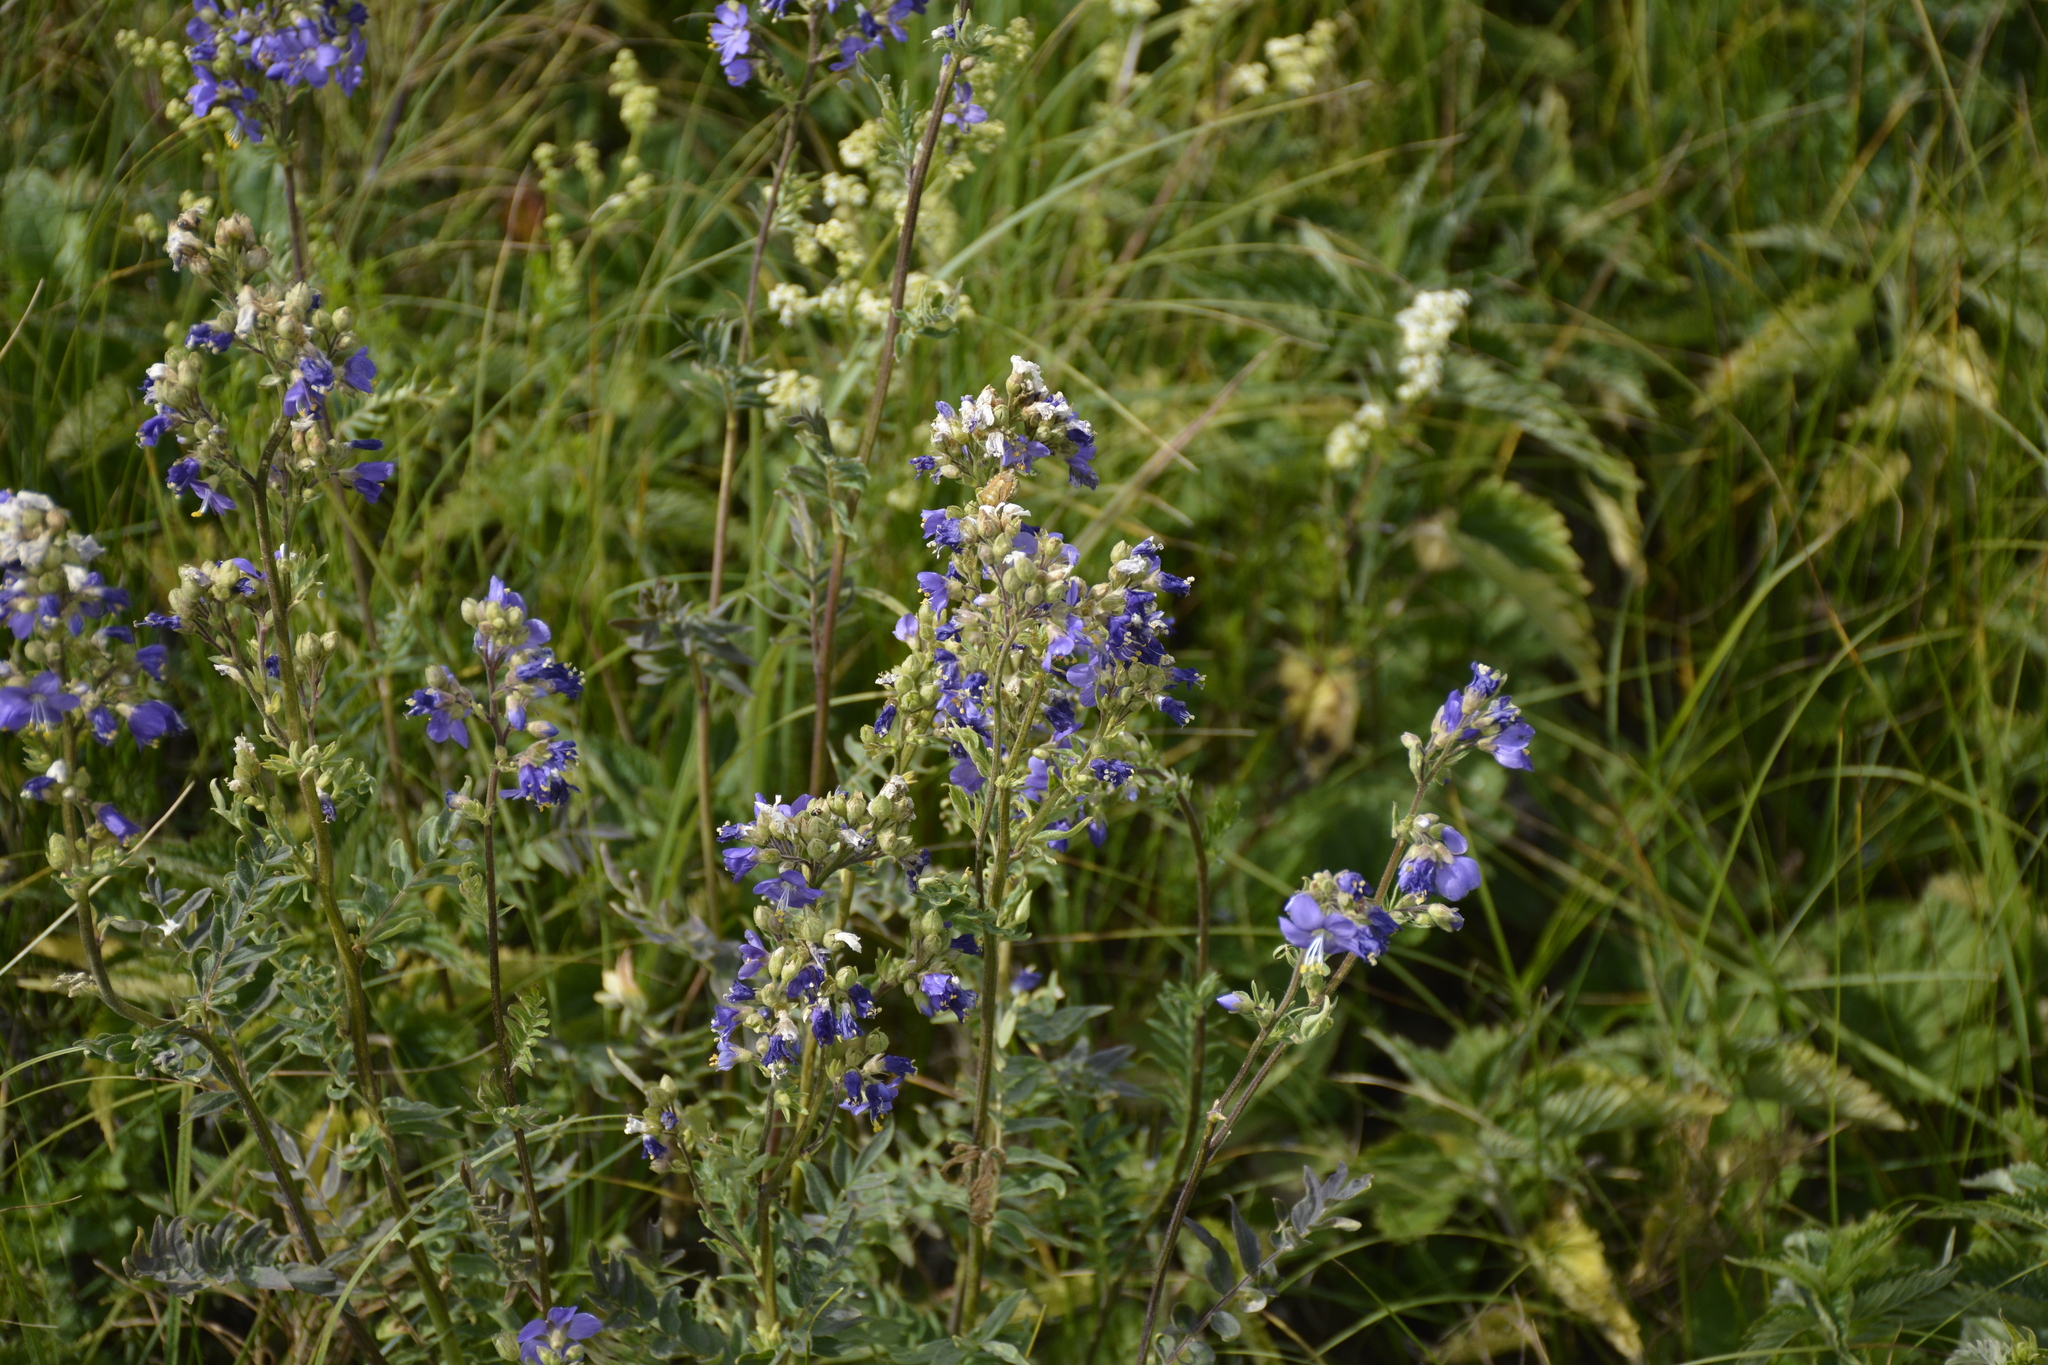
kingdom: Plantae
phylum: Tracheophyta
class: Magnoliopsida
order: Ericales
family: Polemoniaceae
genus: Polemonium
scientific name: Polemonium caeruleum
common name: Jacob's-ladder
